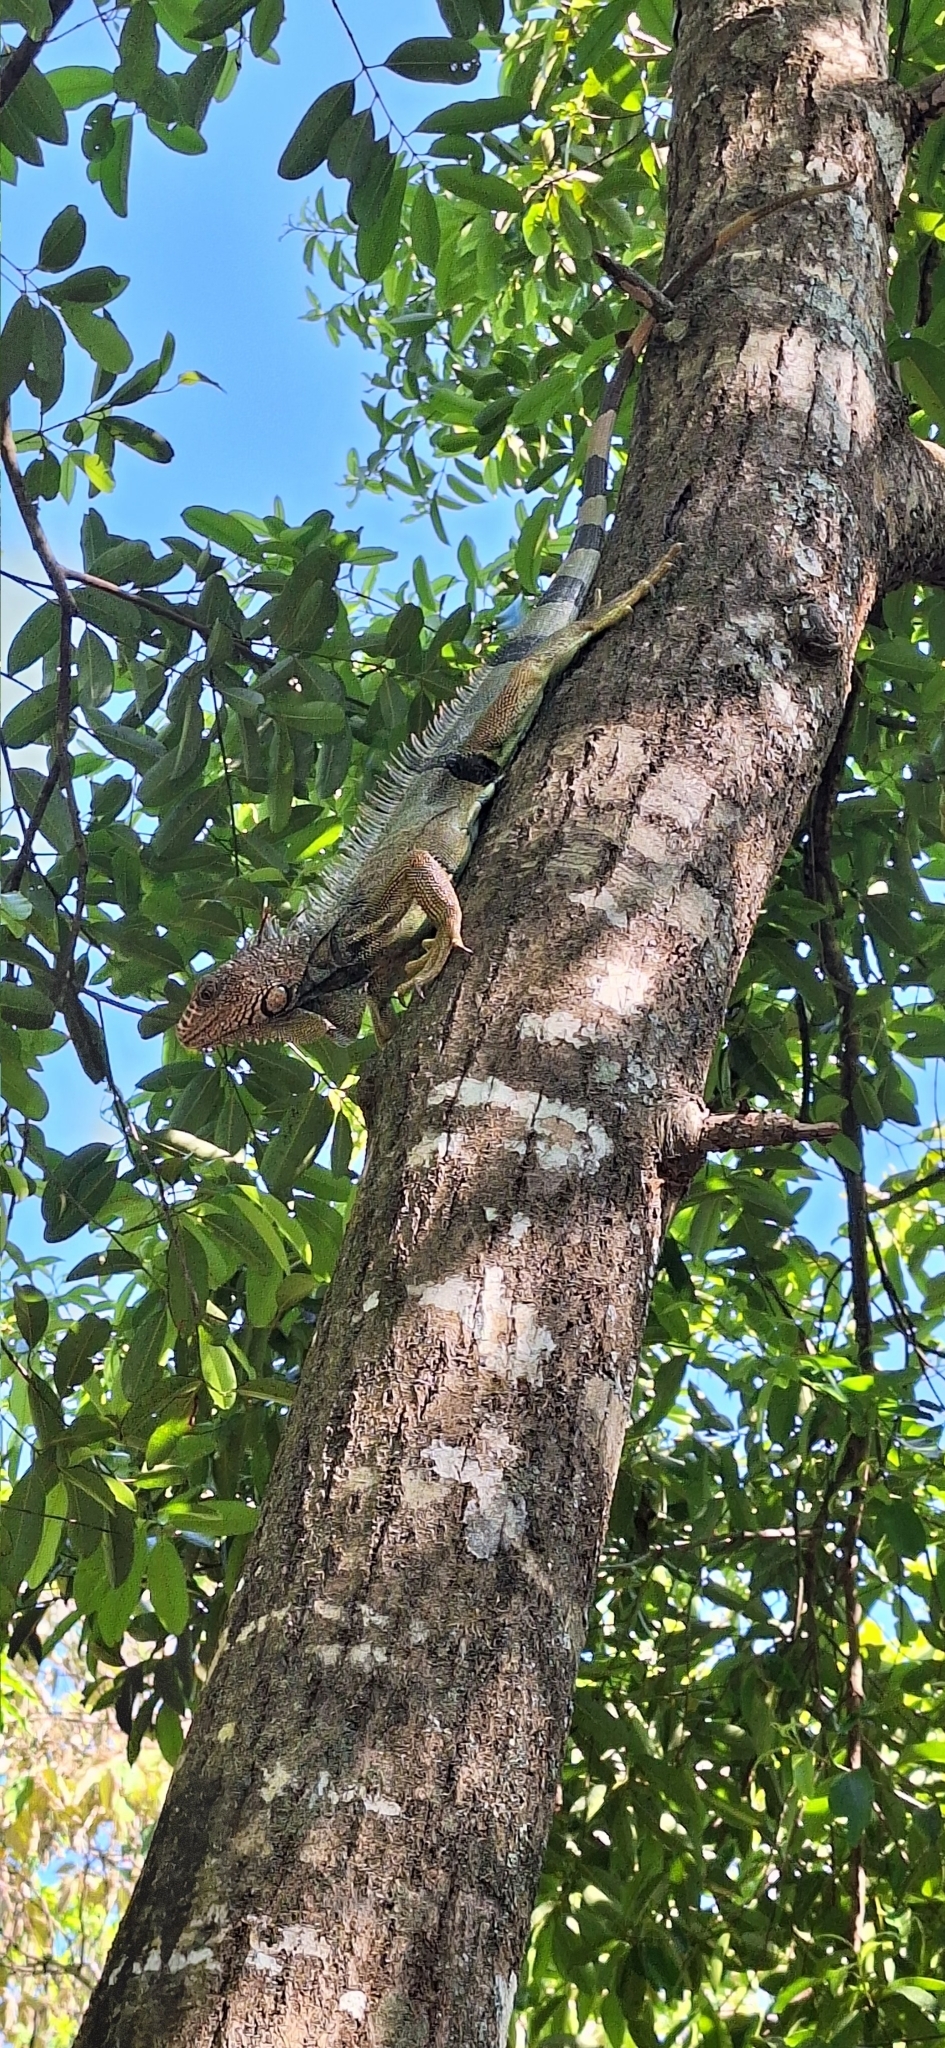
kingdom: Animalia
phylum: Chordata
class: Squamata
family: Iguanidae
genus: Iguana
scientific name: Iguana iguana
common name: Green iguana
